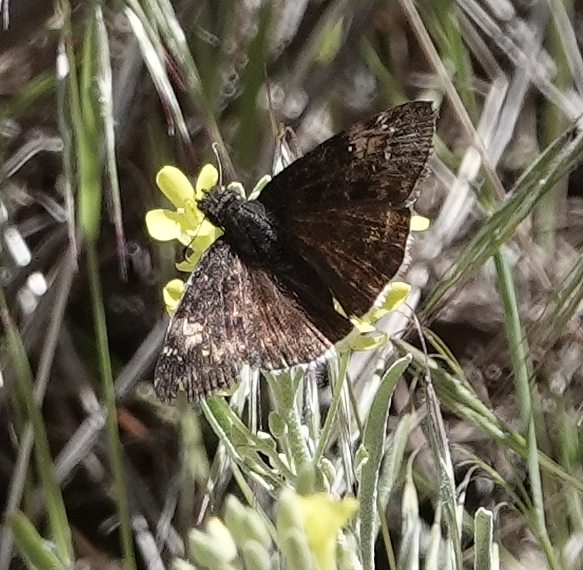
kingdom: Animalia
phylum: Arthropoda
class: Insecta
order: Lepidoptera
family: Hesperiidae
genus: Erynnis
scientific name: Erynnis funeralis
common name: Funereal duskywing
